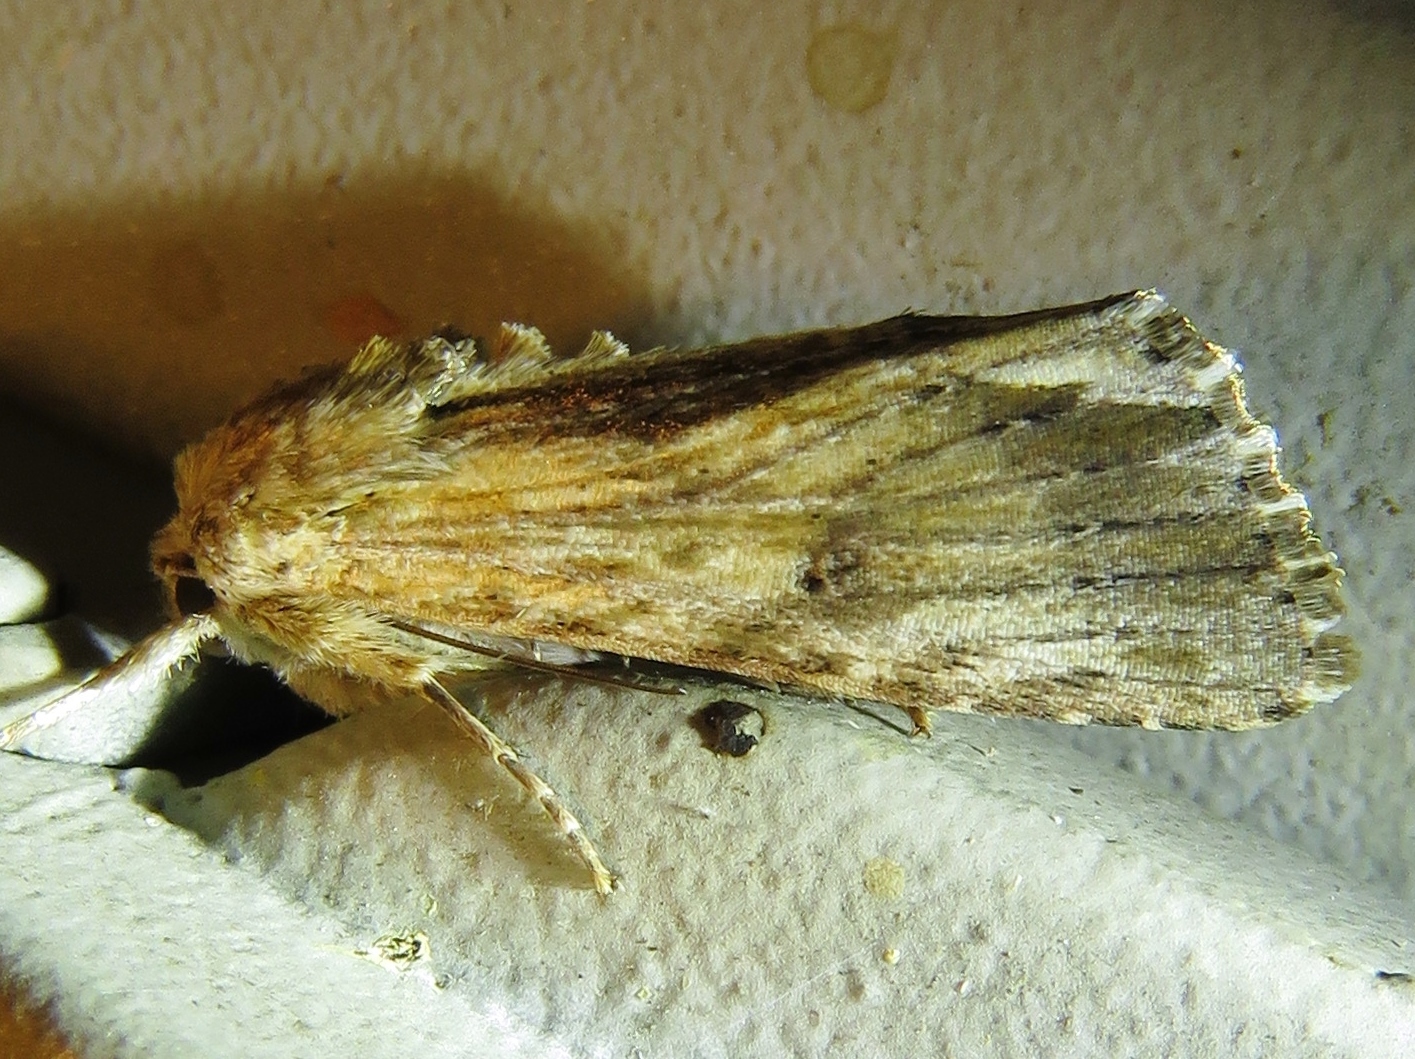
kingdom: Animalia
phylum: Arthropoda
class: Insecta
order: Lepidoptera
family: Noctuidae
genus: Spodoptera
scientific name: Spodoptera eridania
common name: Southern army worm
